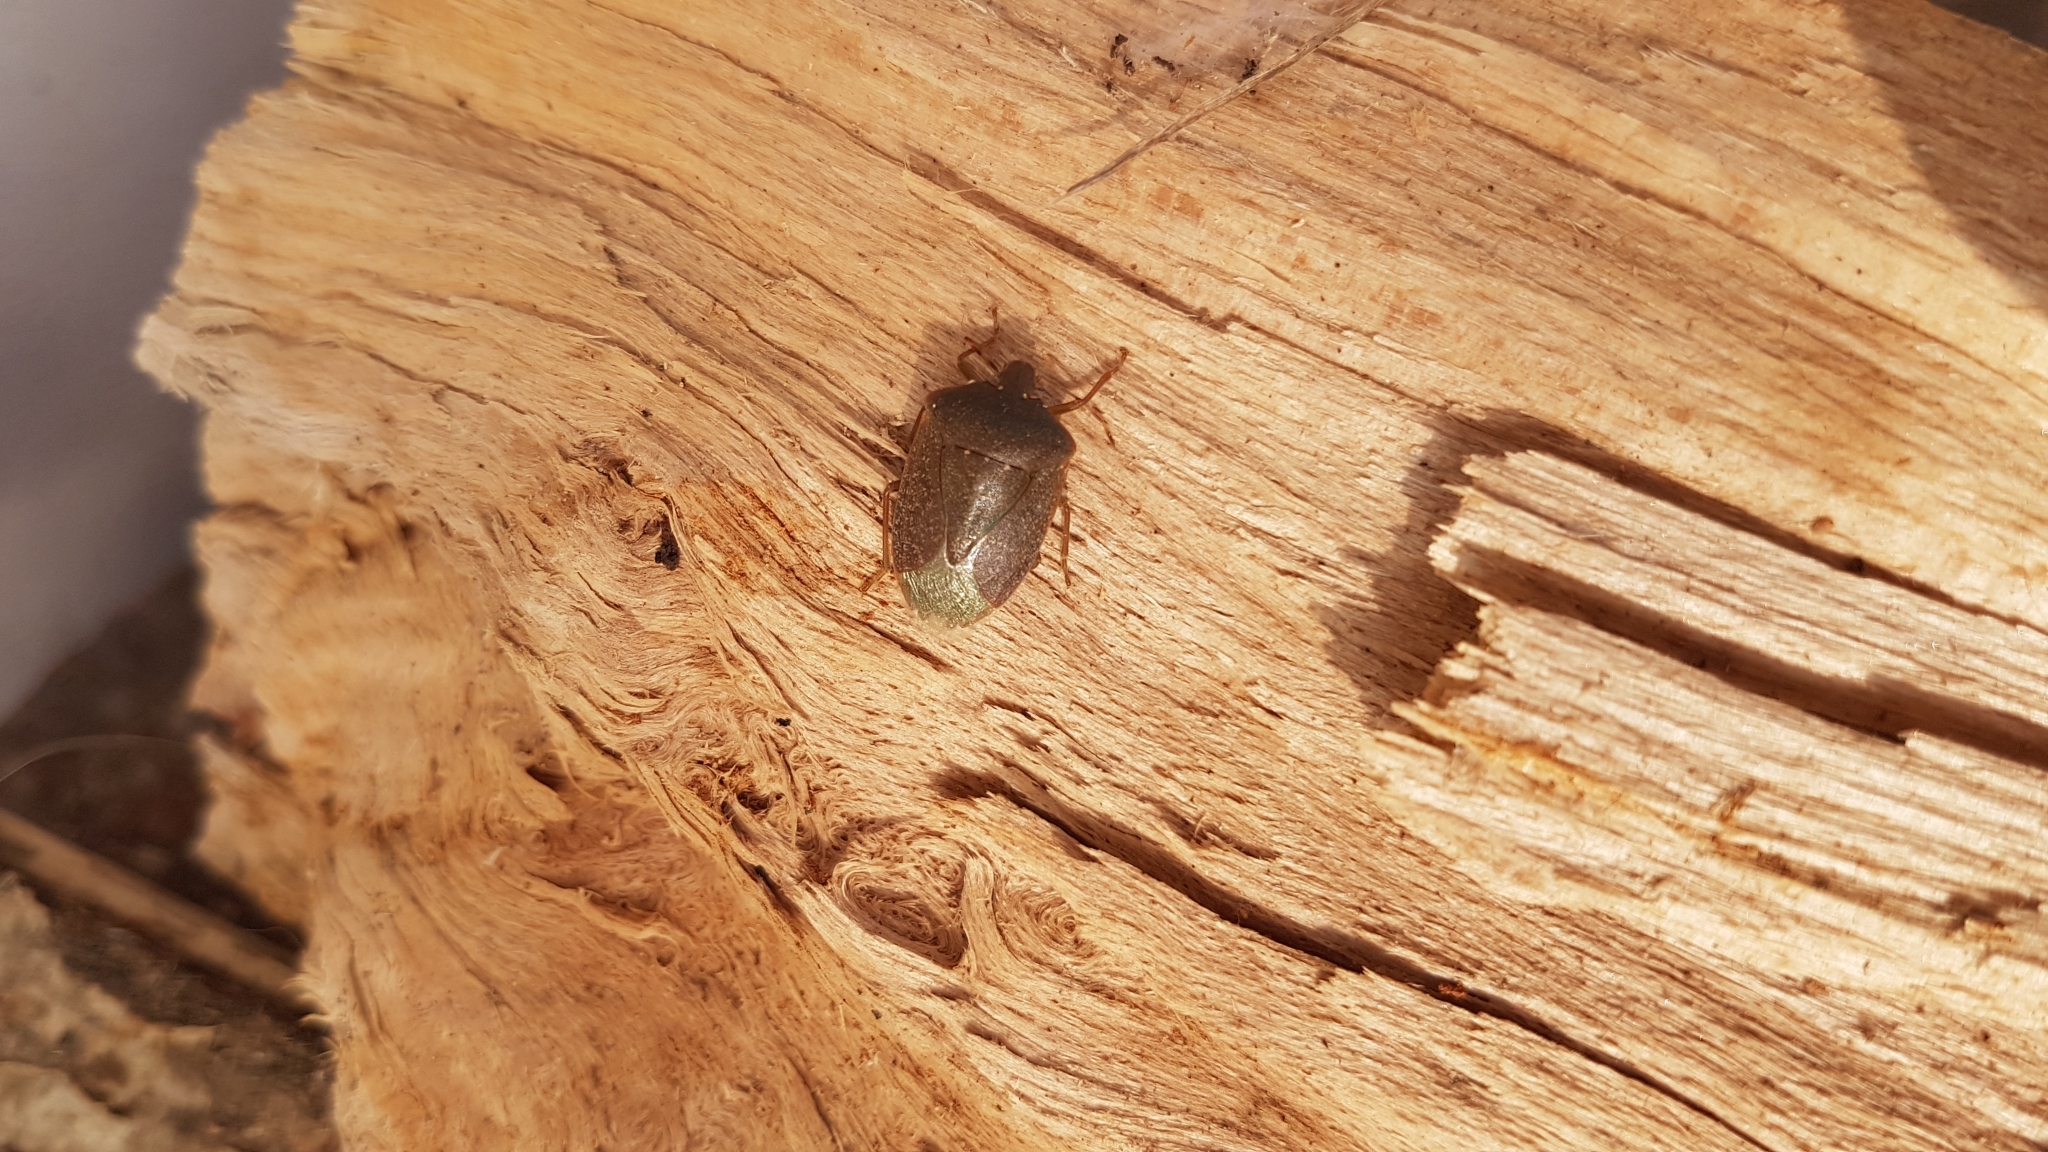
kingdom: Animalia
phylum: Arthropoda
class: Insecta
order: Hemiptera
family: Pentatomidae
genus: Nezara
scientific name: Nezara viridula
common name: Southern green stink bug
